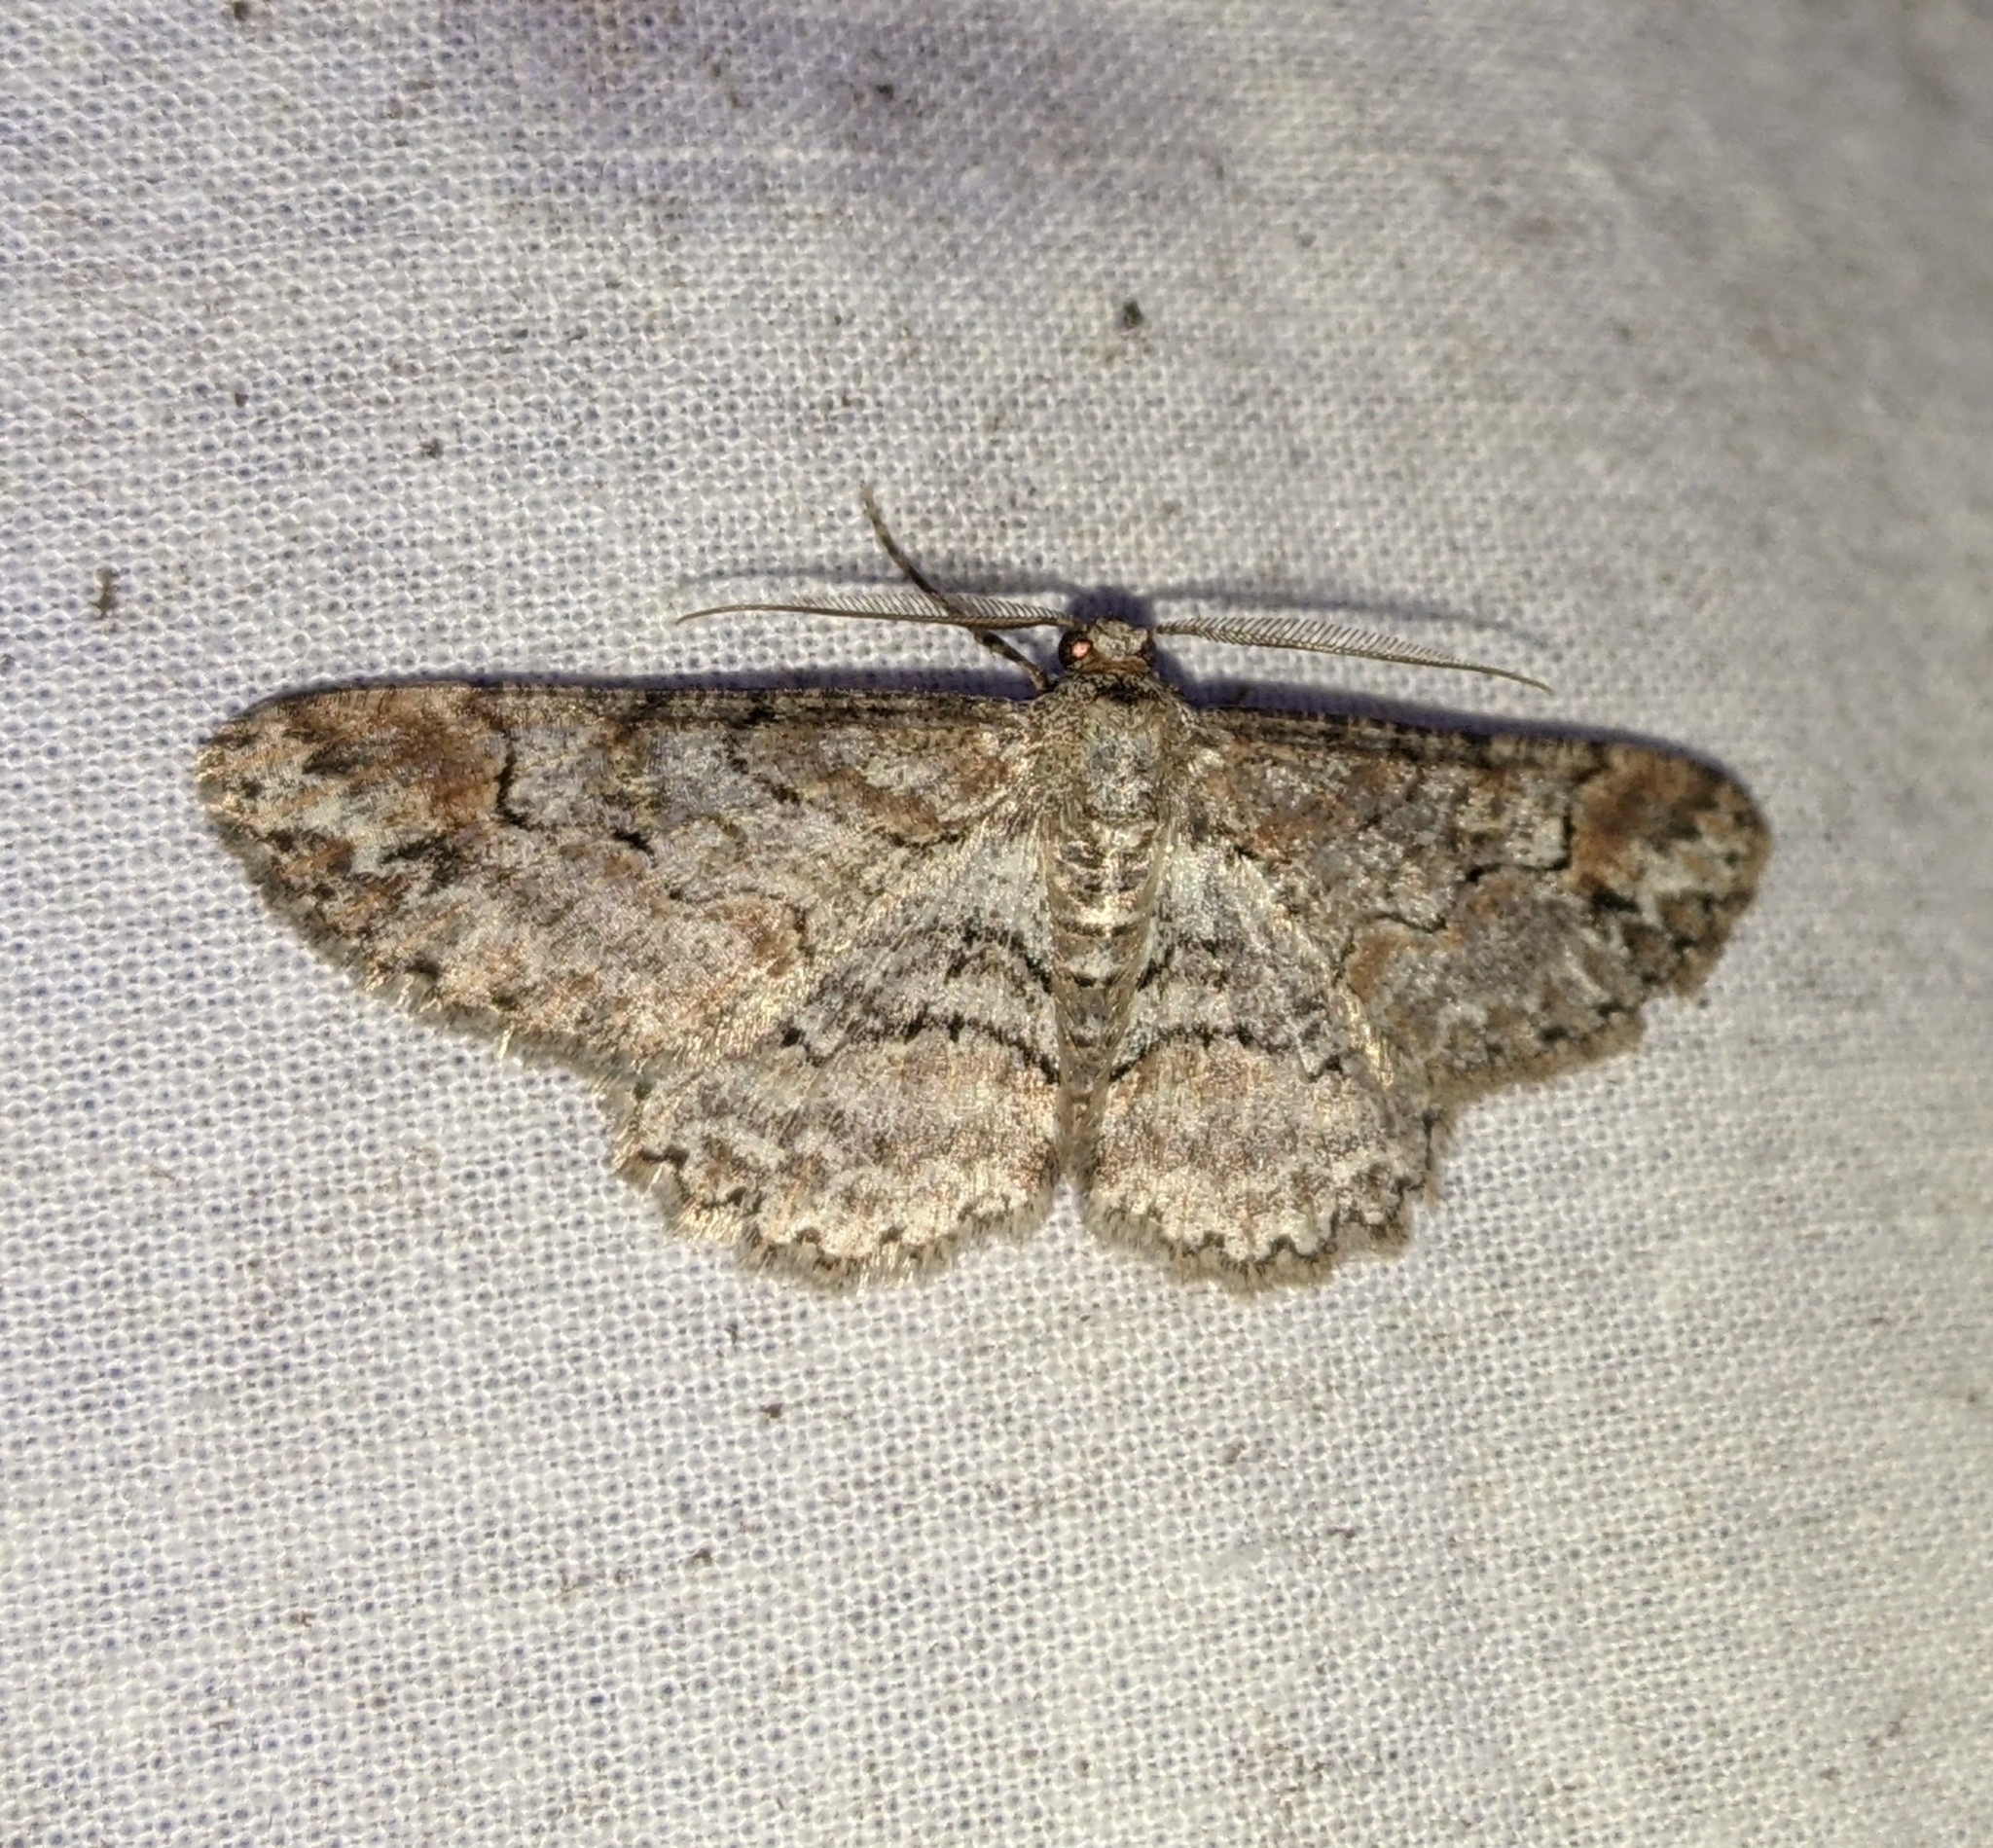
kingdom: Animalia
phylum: Arthropoda
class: Insecta
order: Lepidoptera
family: Geometridae
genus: Iridopsis
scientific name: Iridopsis emasculatum
